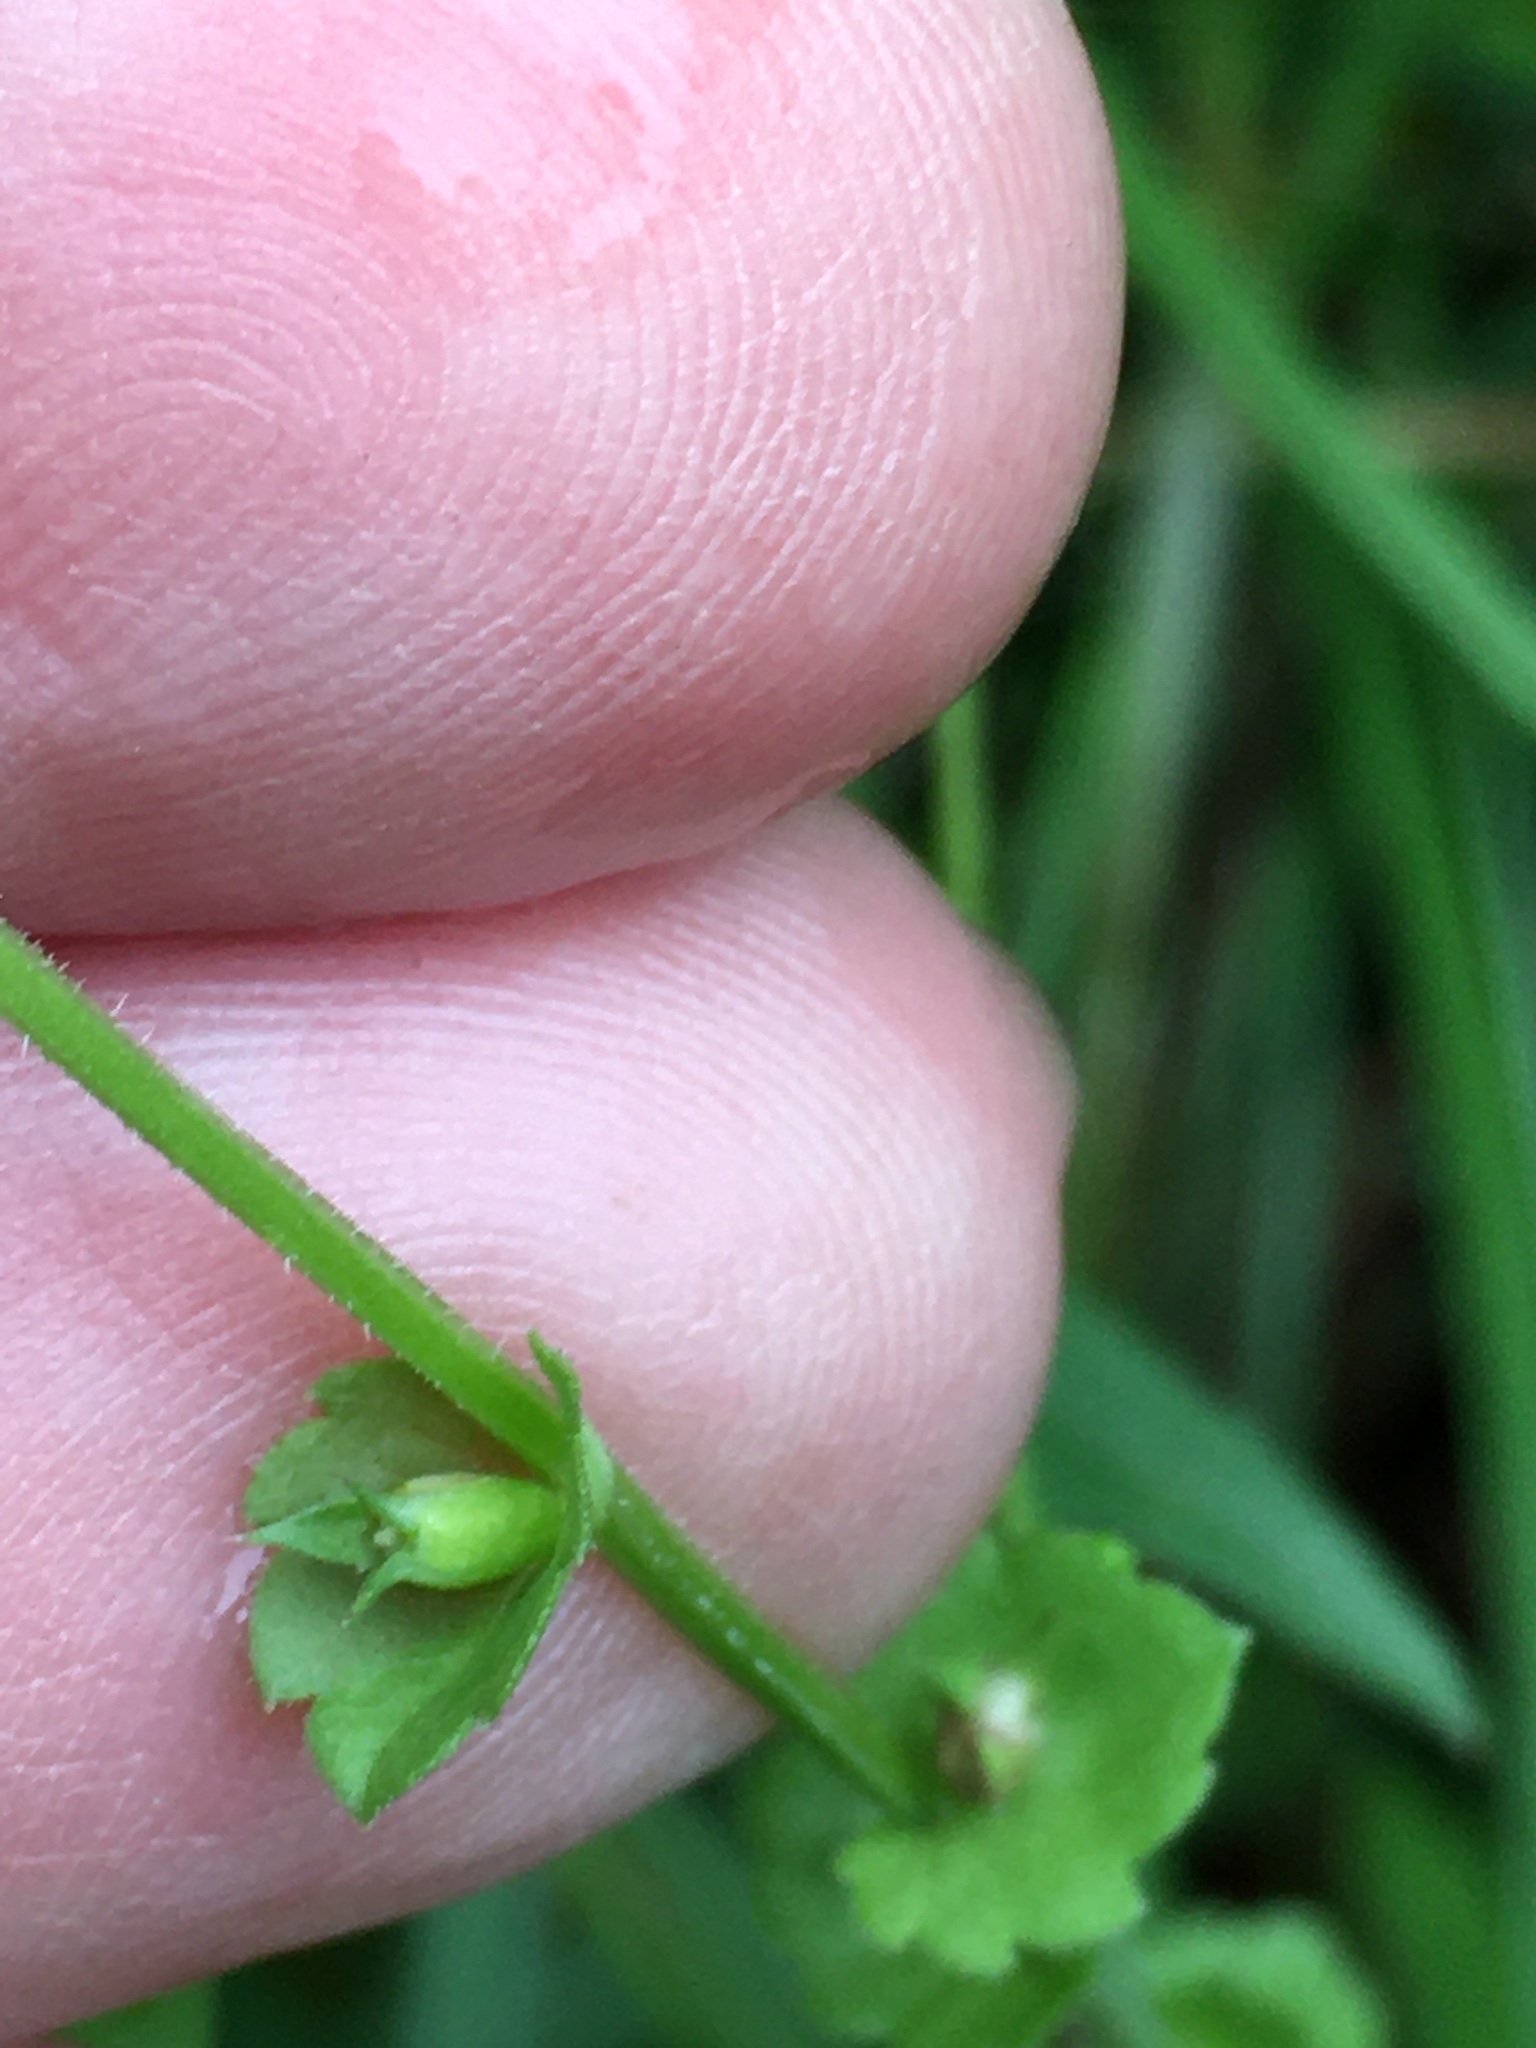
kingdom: Plantae
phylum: Tracheophyta
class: Magnoliopsida
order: Asterales
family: Campanulaceae
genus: Triodanis
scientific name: Triodanis perfoliata
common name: Clasping venus' looking-glass
